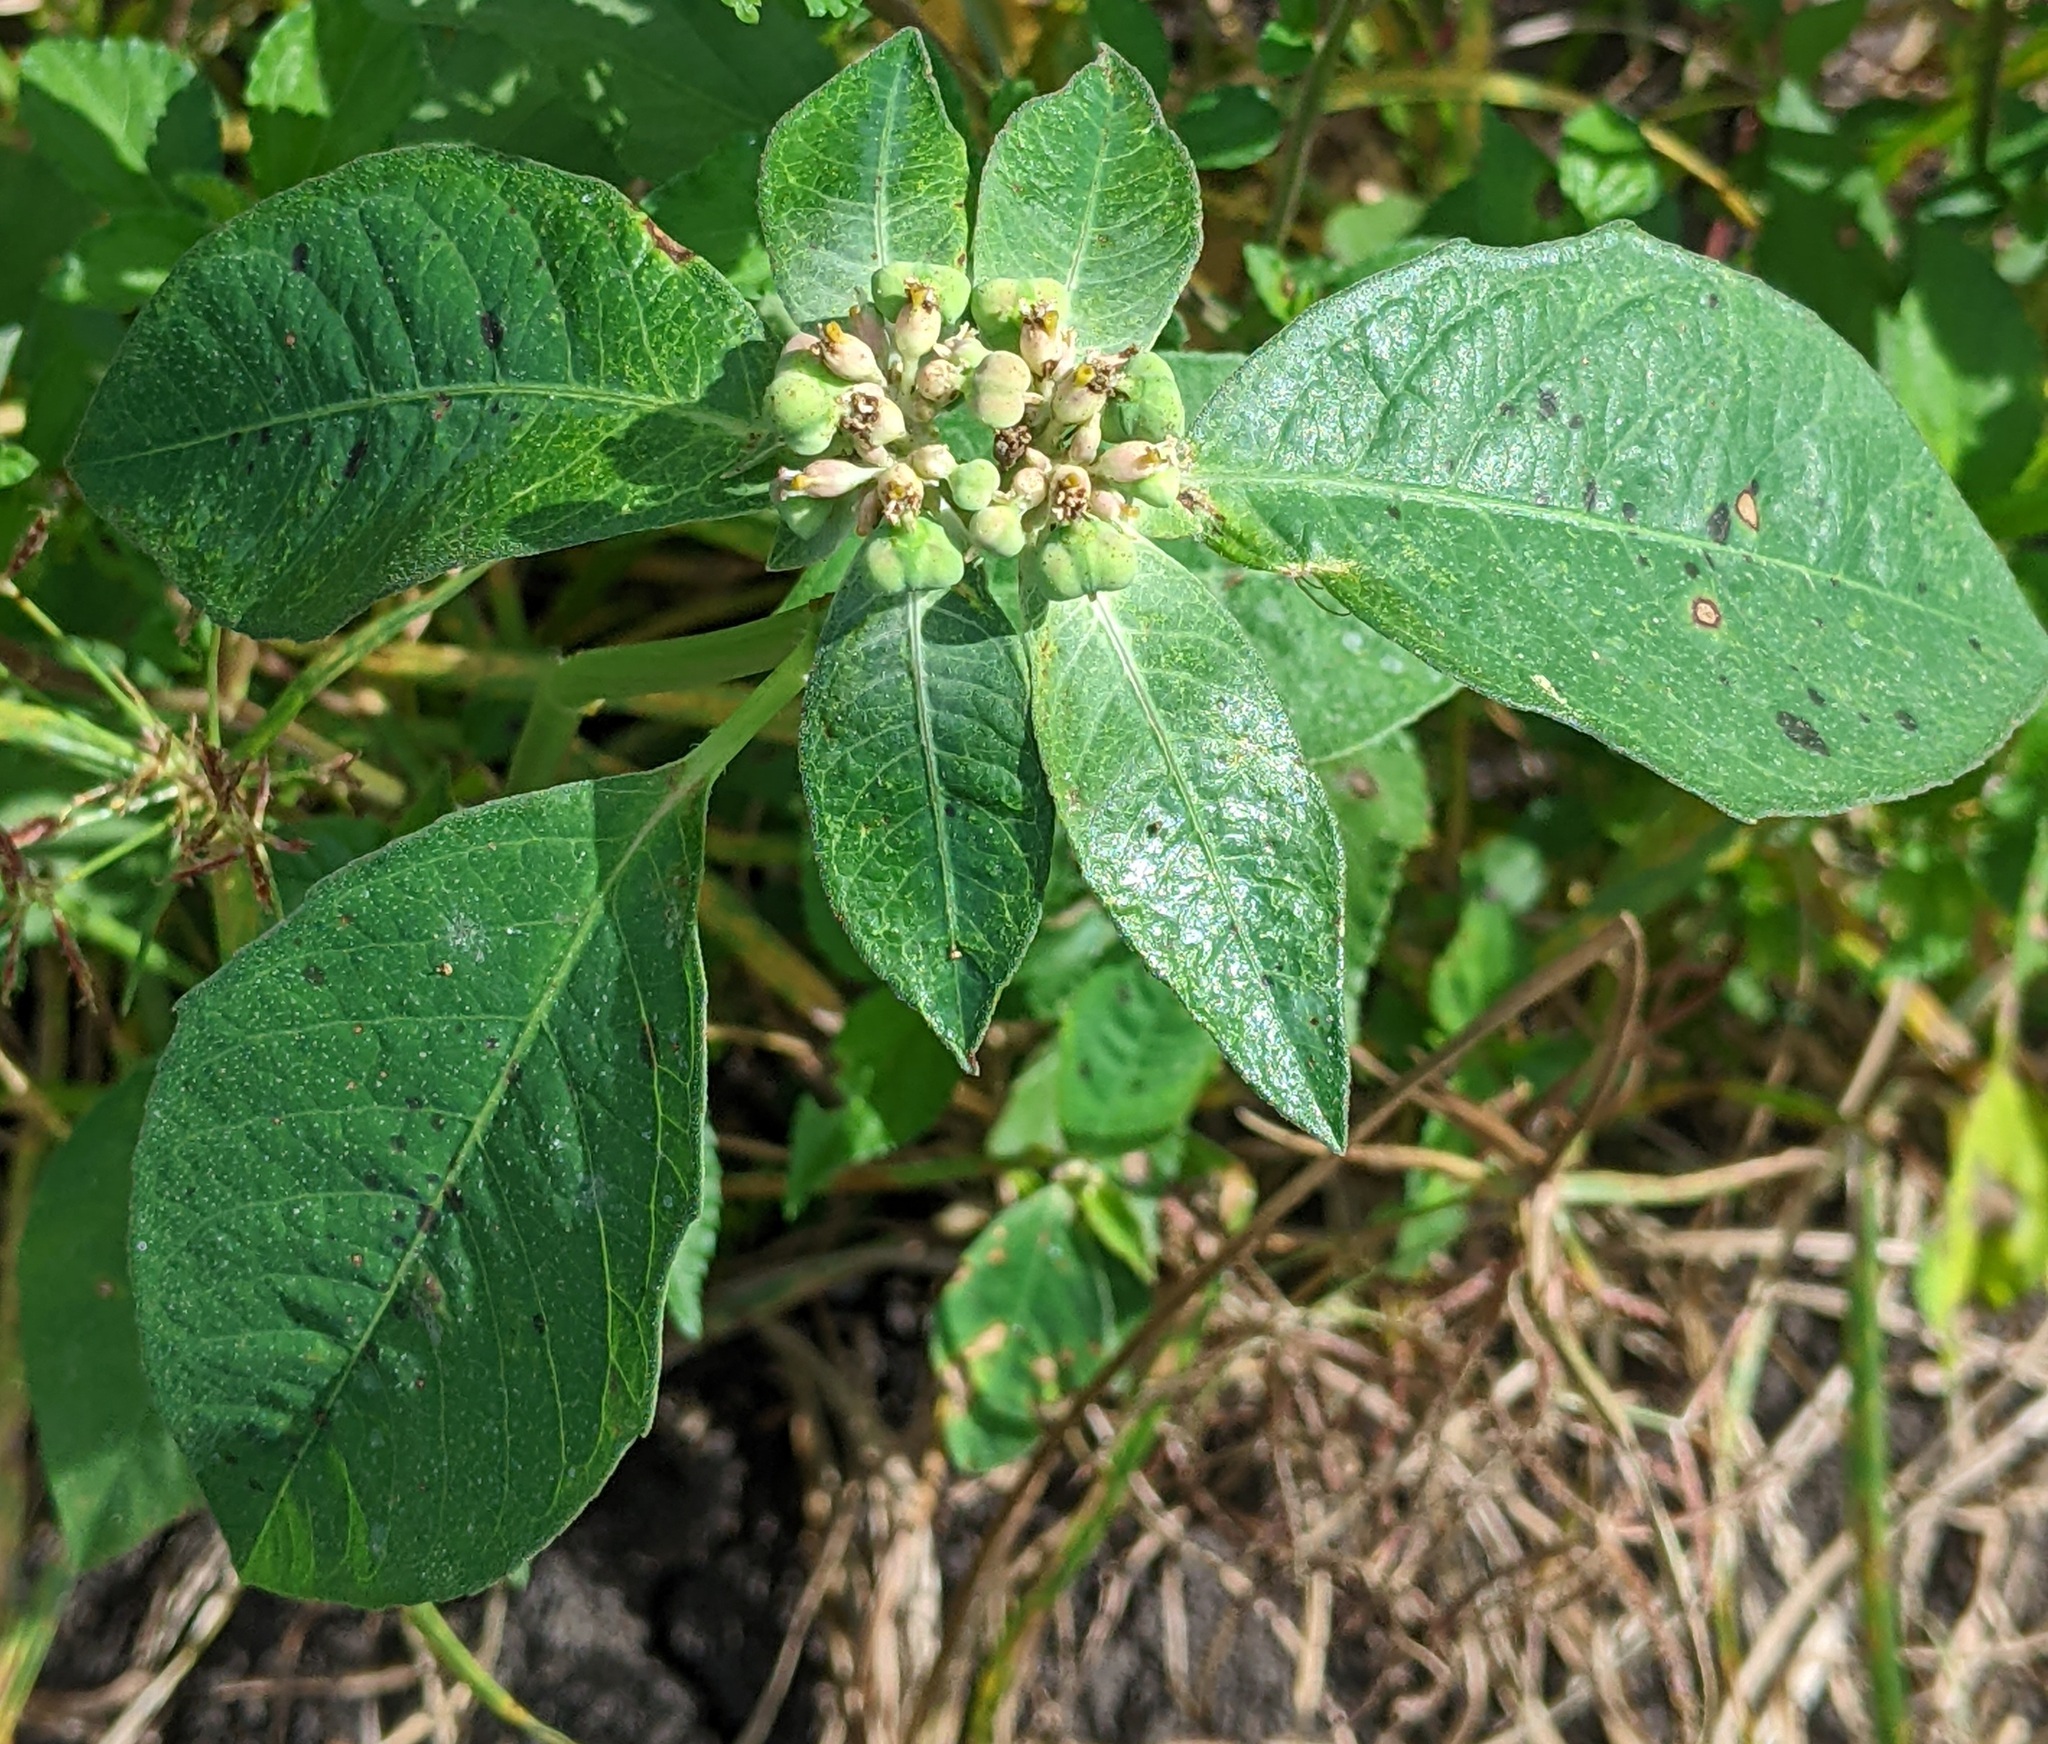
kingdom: Plantae
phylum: Tracheophyta
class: Magnoliopsida
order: Malpighiales
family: Euphorbiaceae
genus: Euphorbia
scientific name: Euphorbia heterophylla
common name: Mexican fireplant
